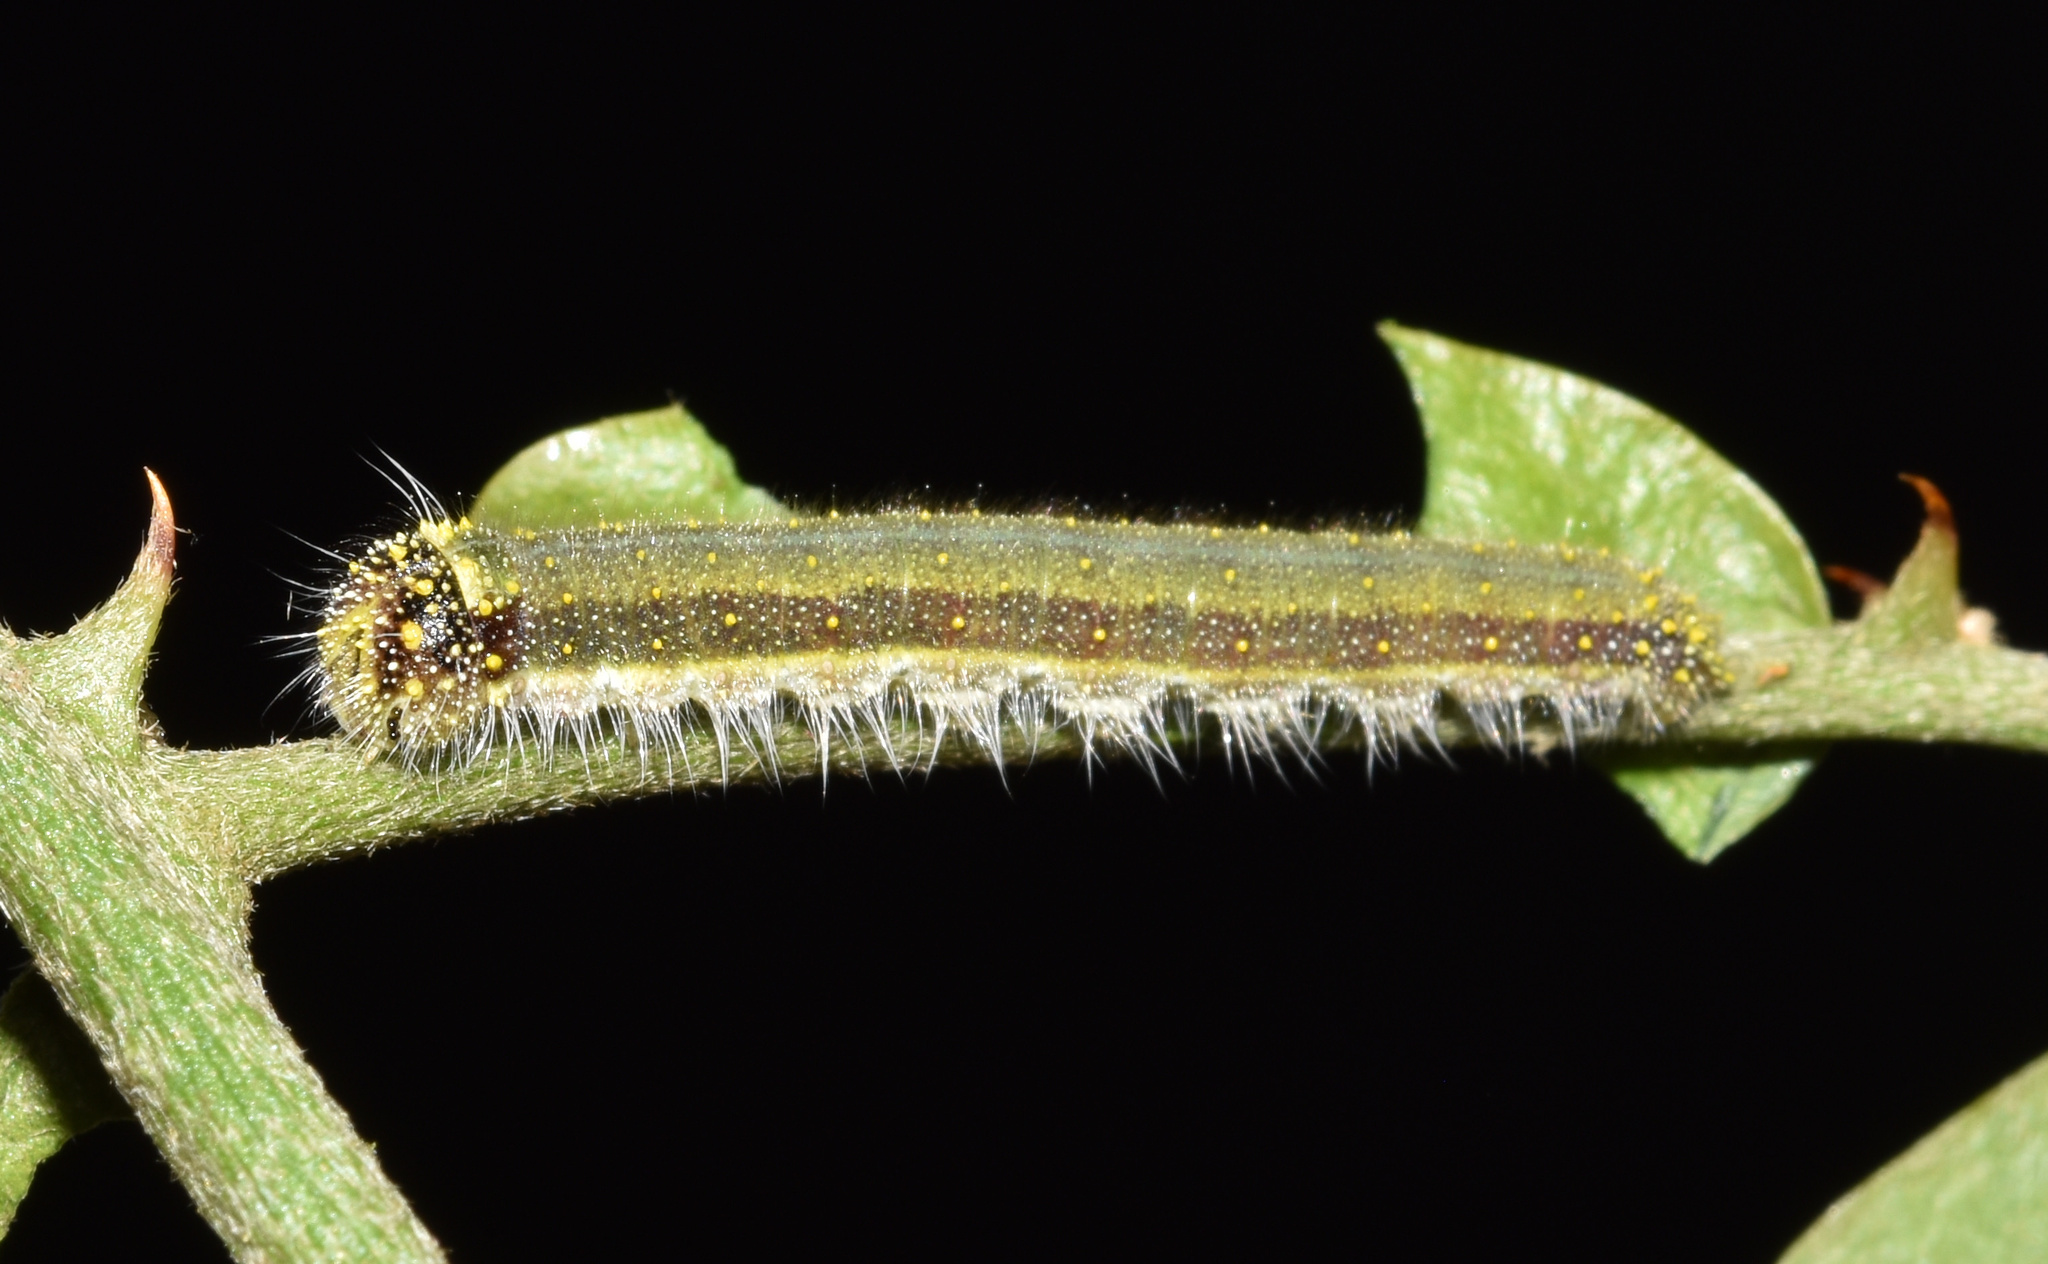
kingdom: Animalia
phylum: Arthropoda
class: Insecta
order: Lepidoptera
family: Pieridae
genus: Belenois
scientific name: Belenois creona
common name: African caper white
